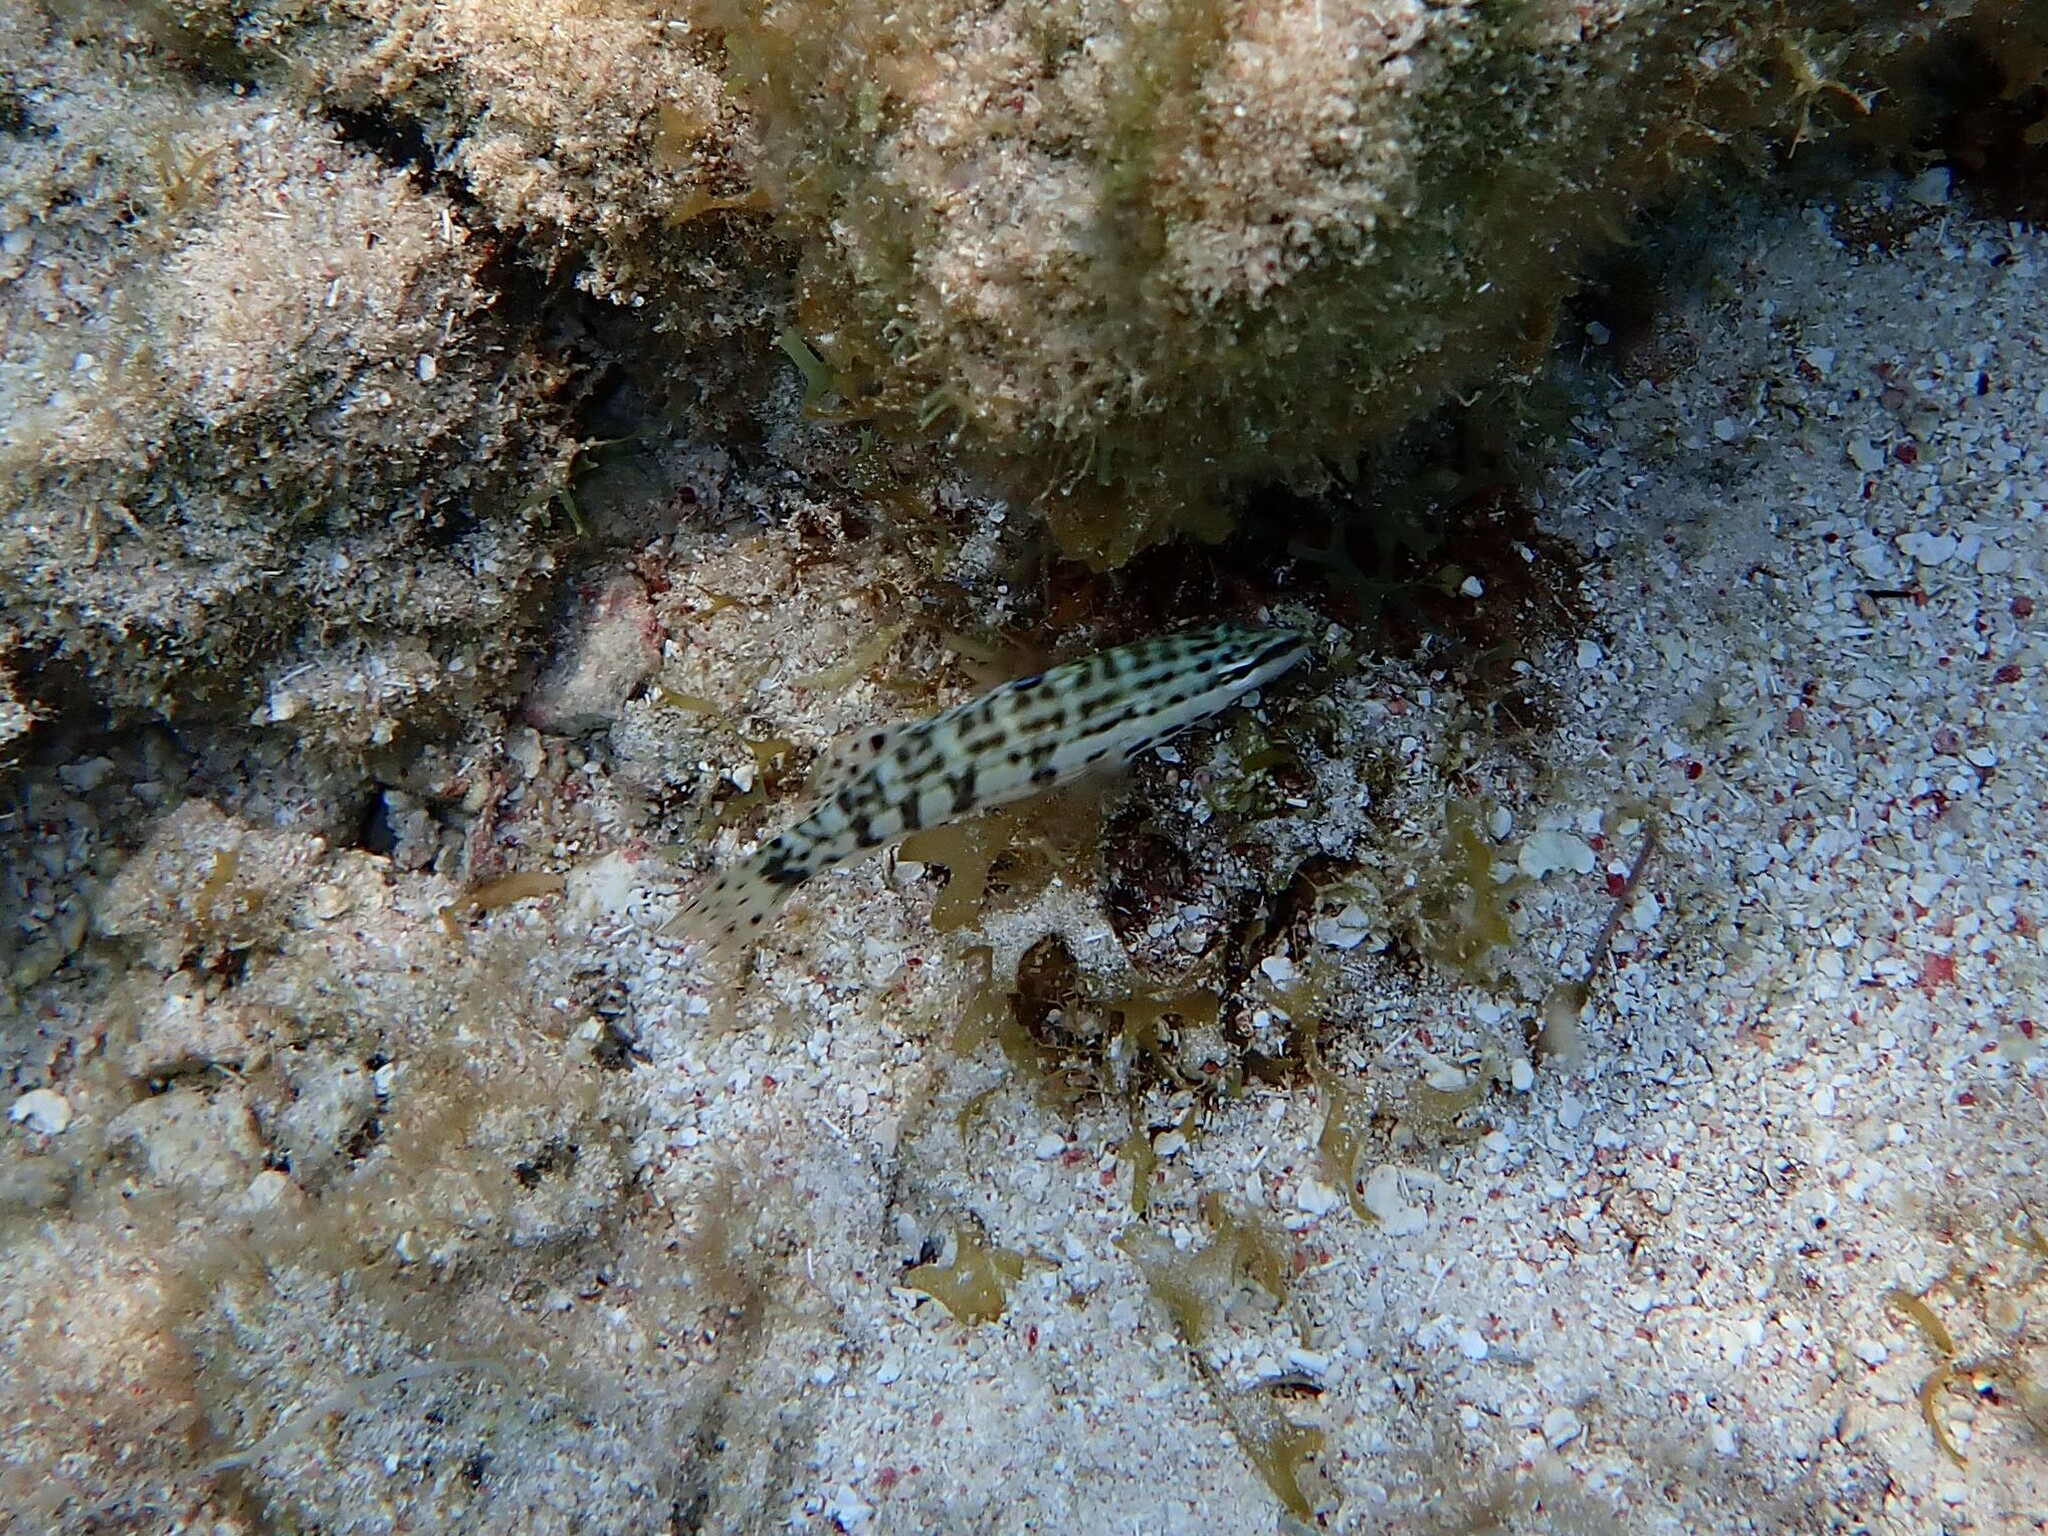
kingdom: Animalia
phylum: Chordata
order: Perciformes
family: Serranidae
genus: Serranus
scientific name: Serranus tigrinus
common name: Harlequin bass
